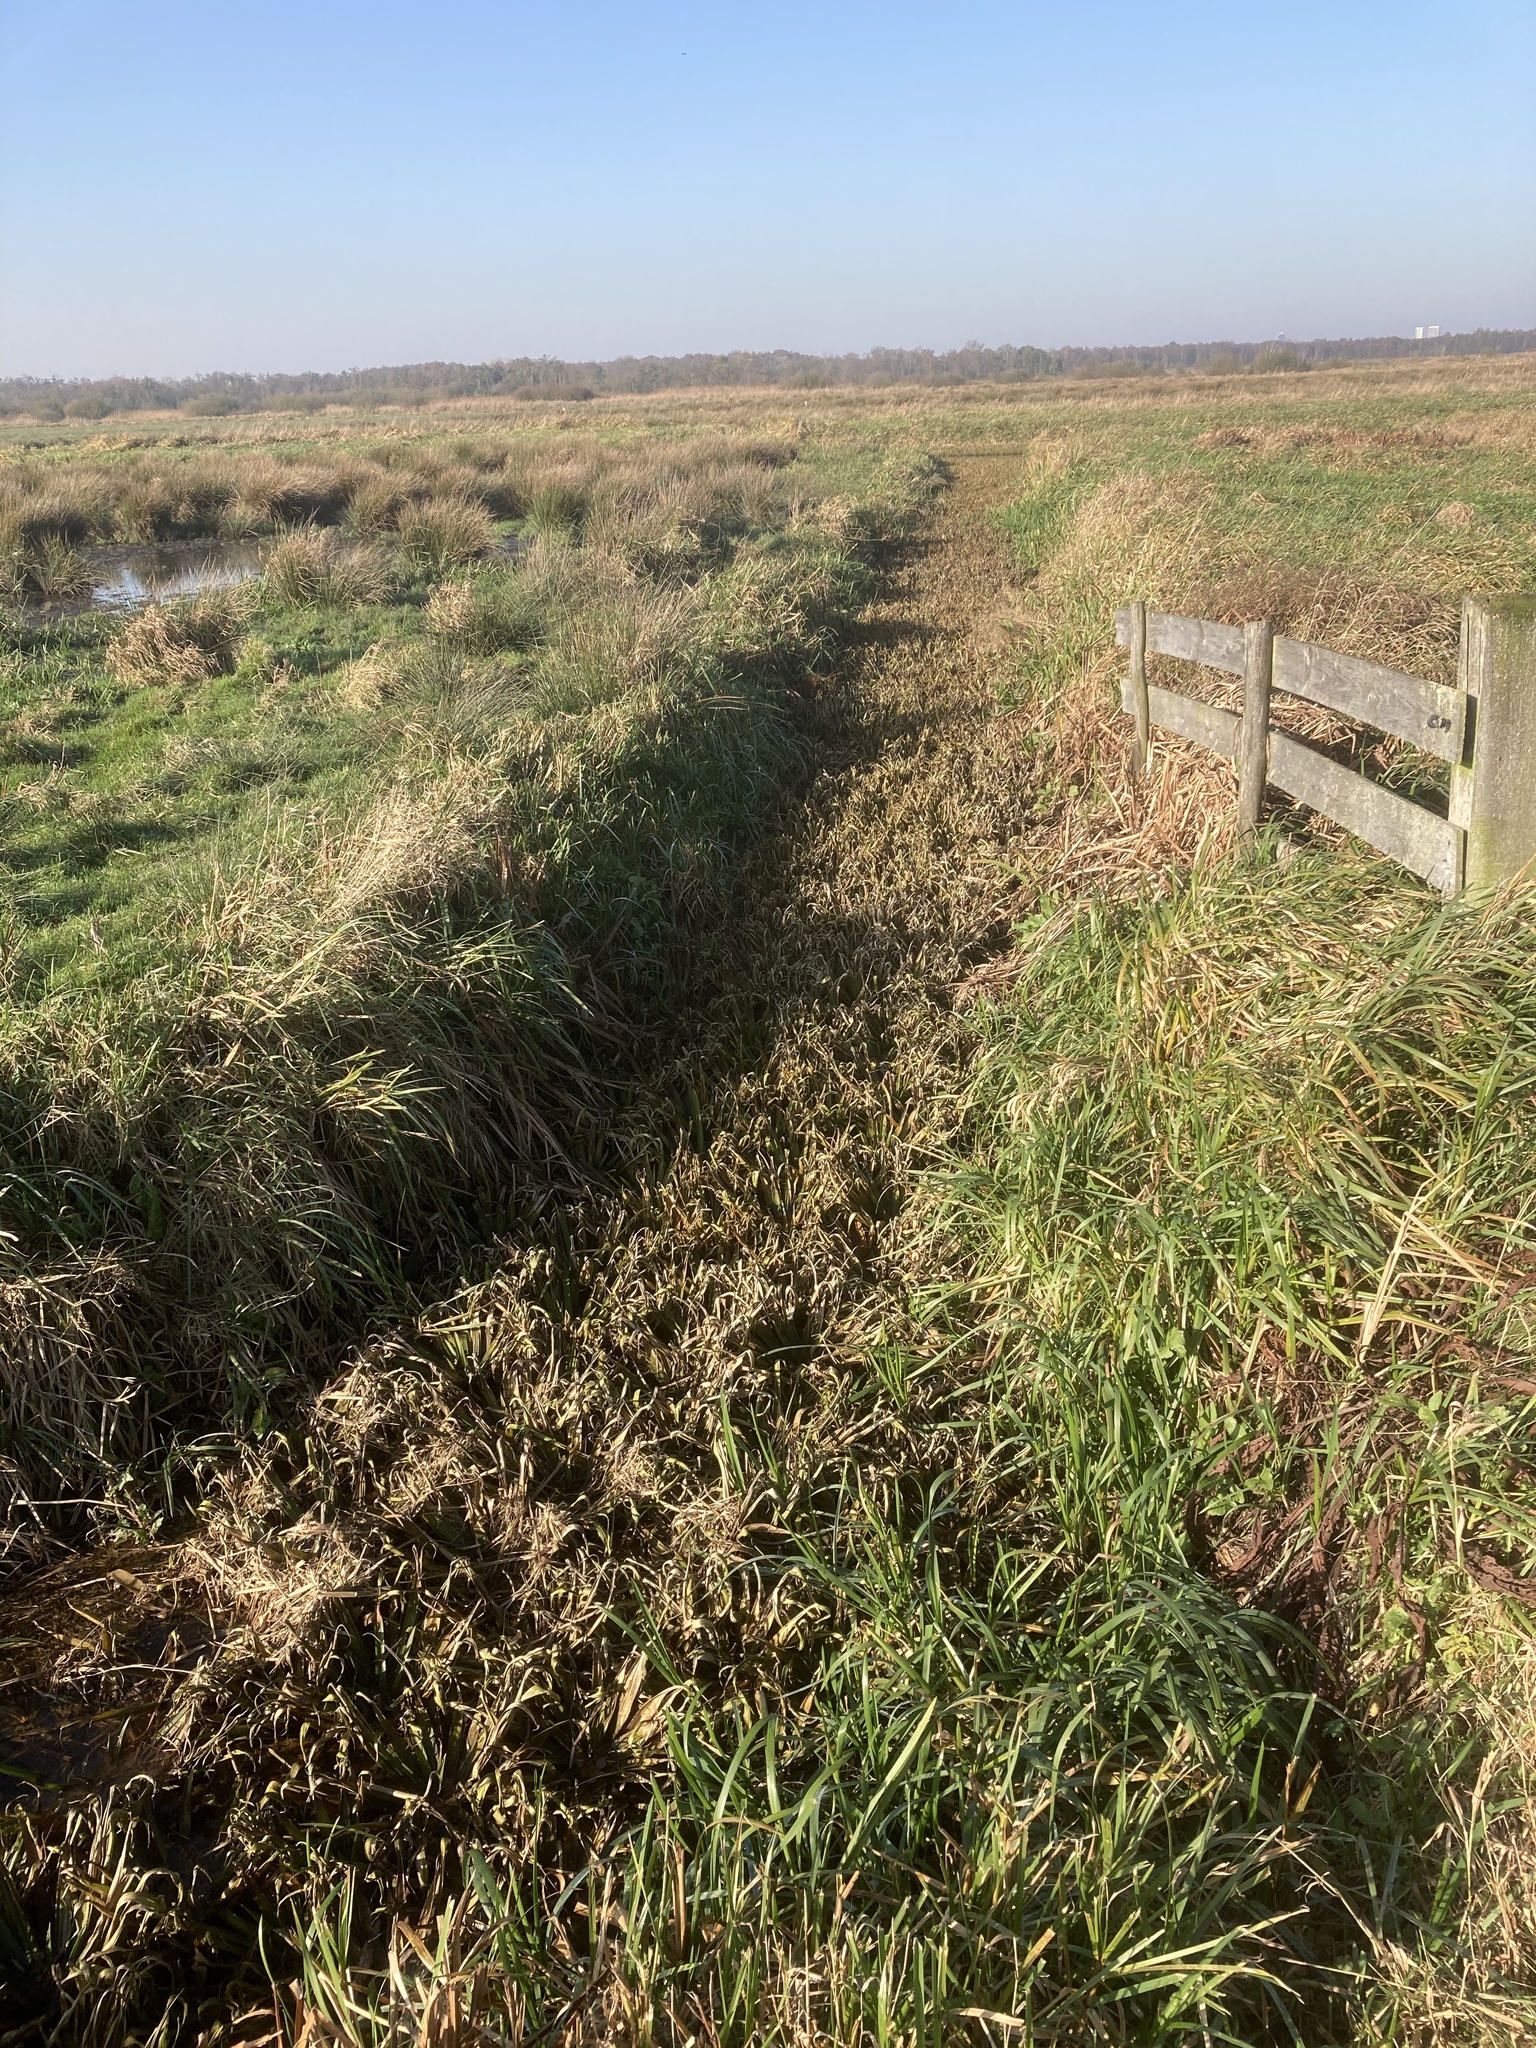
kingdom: Plantae
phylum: Tracheophyta
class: Liliopsida
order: Alismatales
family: Hydrocharitaceae
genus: Stratiotes
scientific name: Stratiotes aloides
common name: Water-soldier
